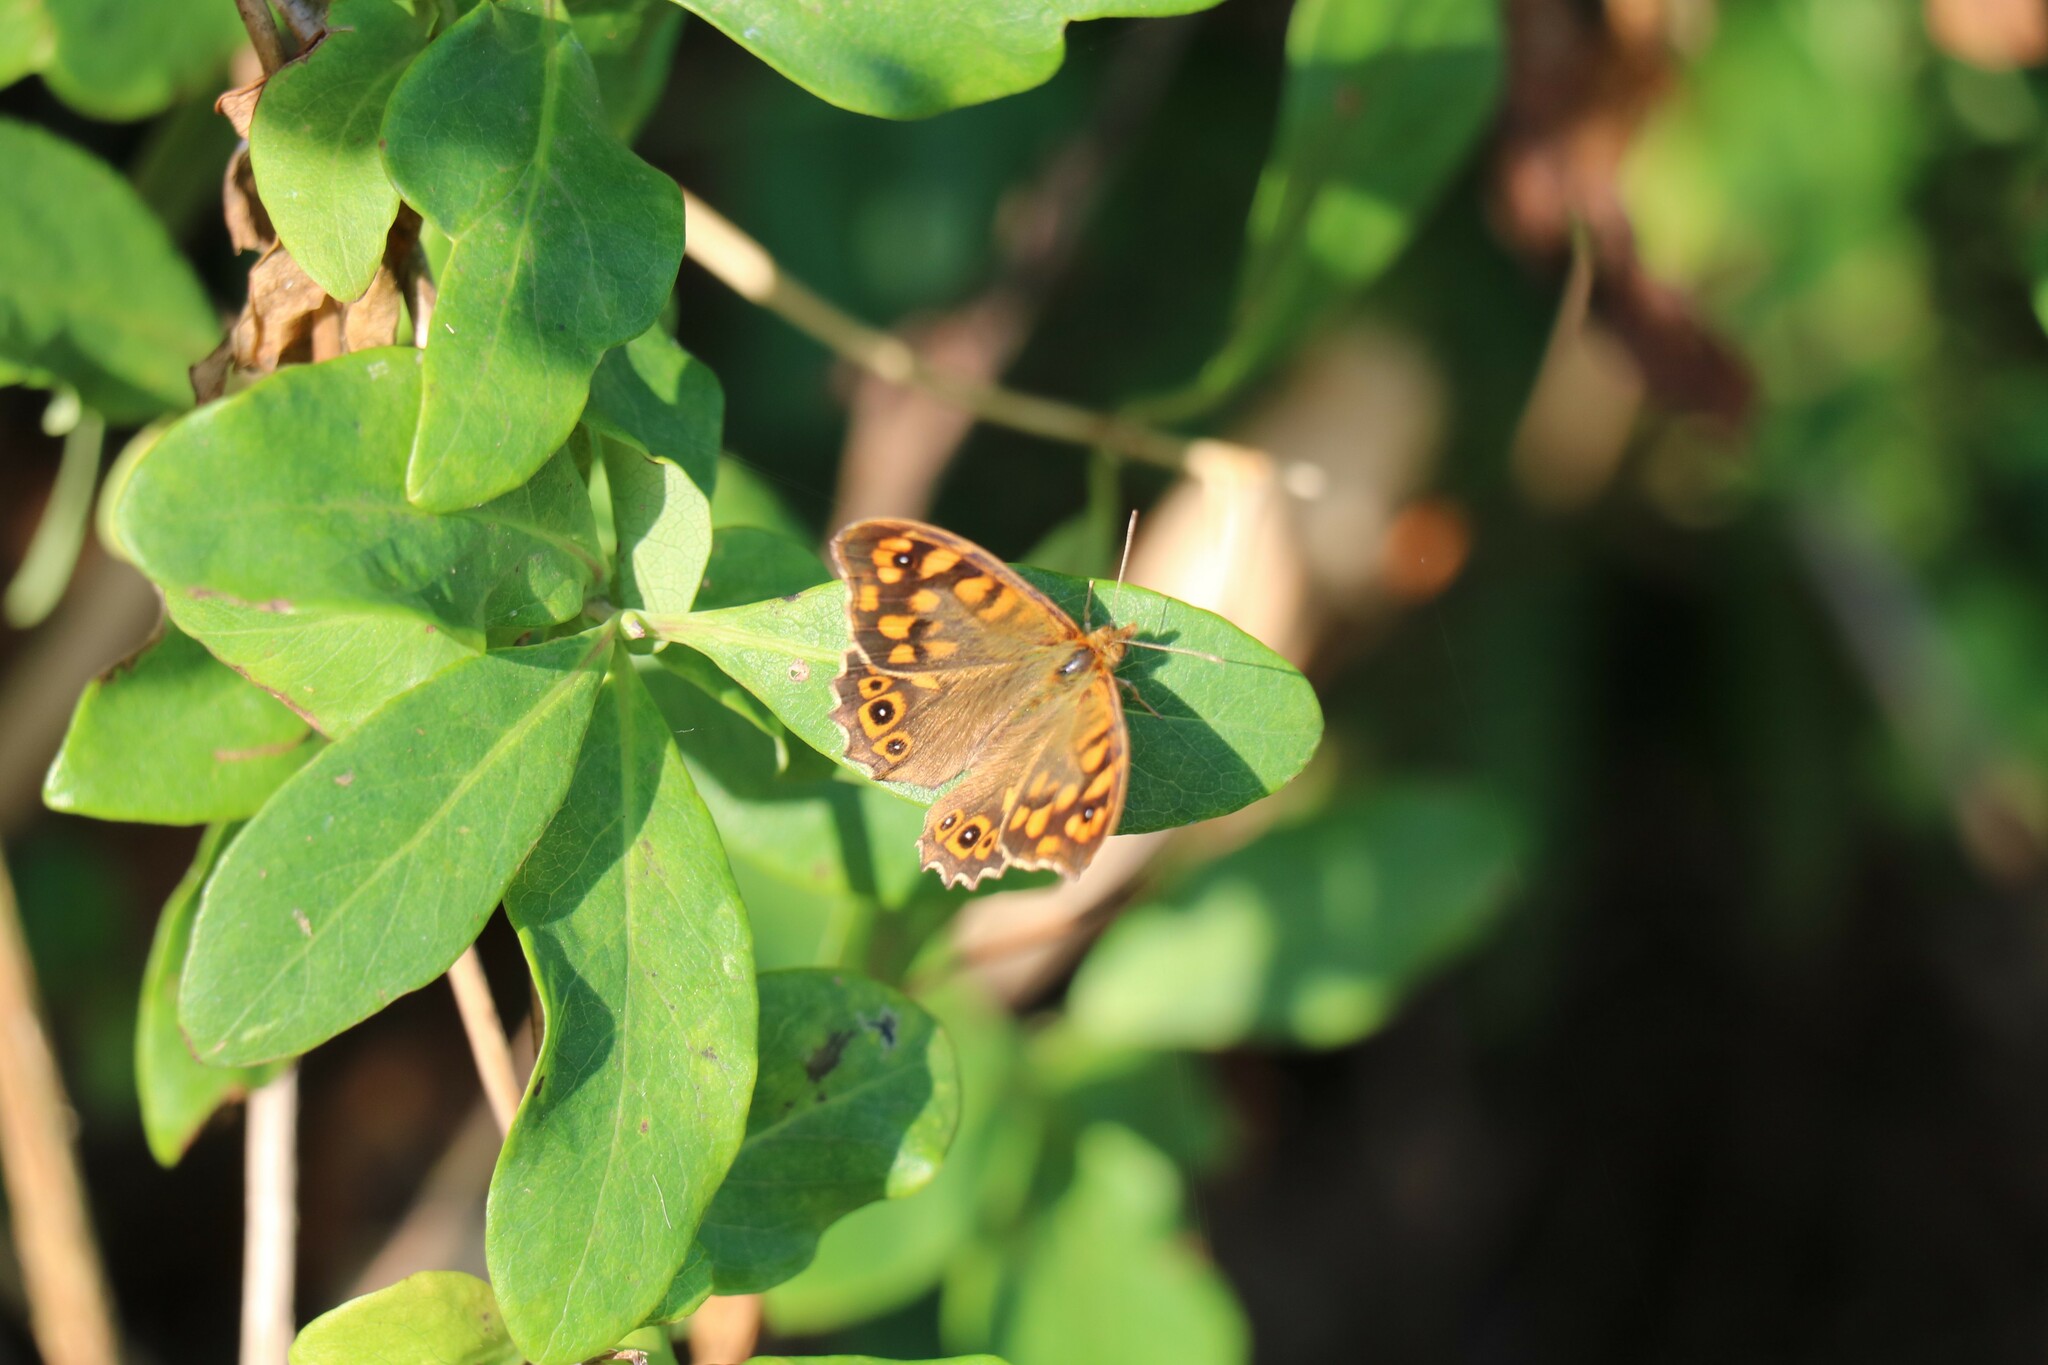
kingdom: Animalia
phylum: Arthropoda
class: Insecta
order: Lepidoptera
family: Nymphalidae
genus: Pararge
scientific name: Pararge aegeria
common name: Speckled wood
